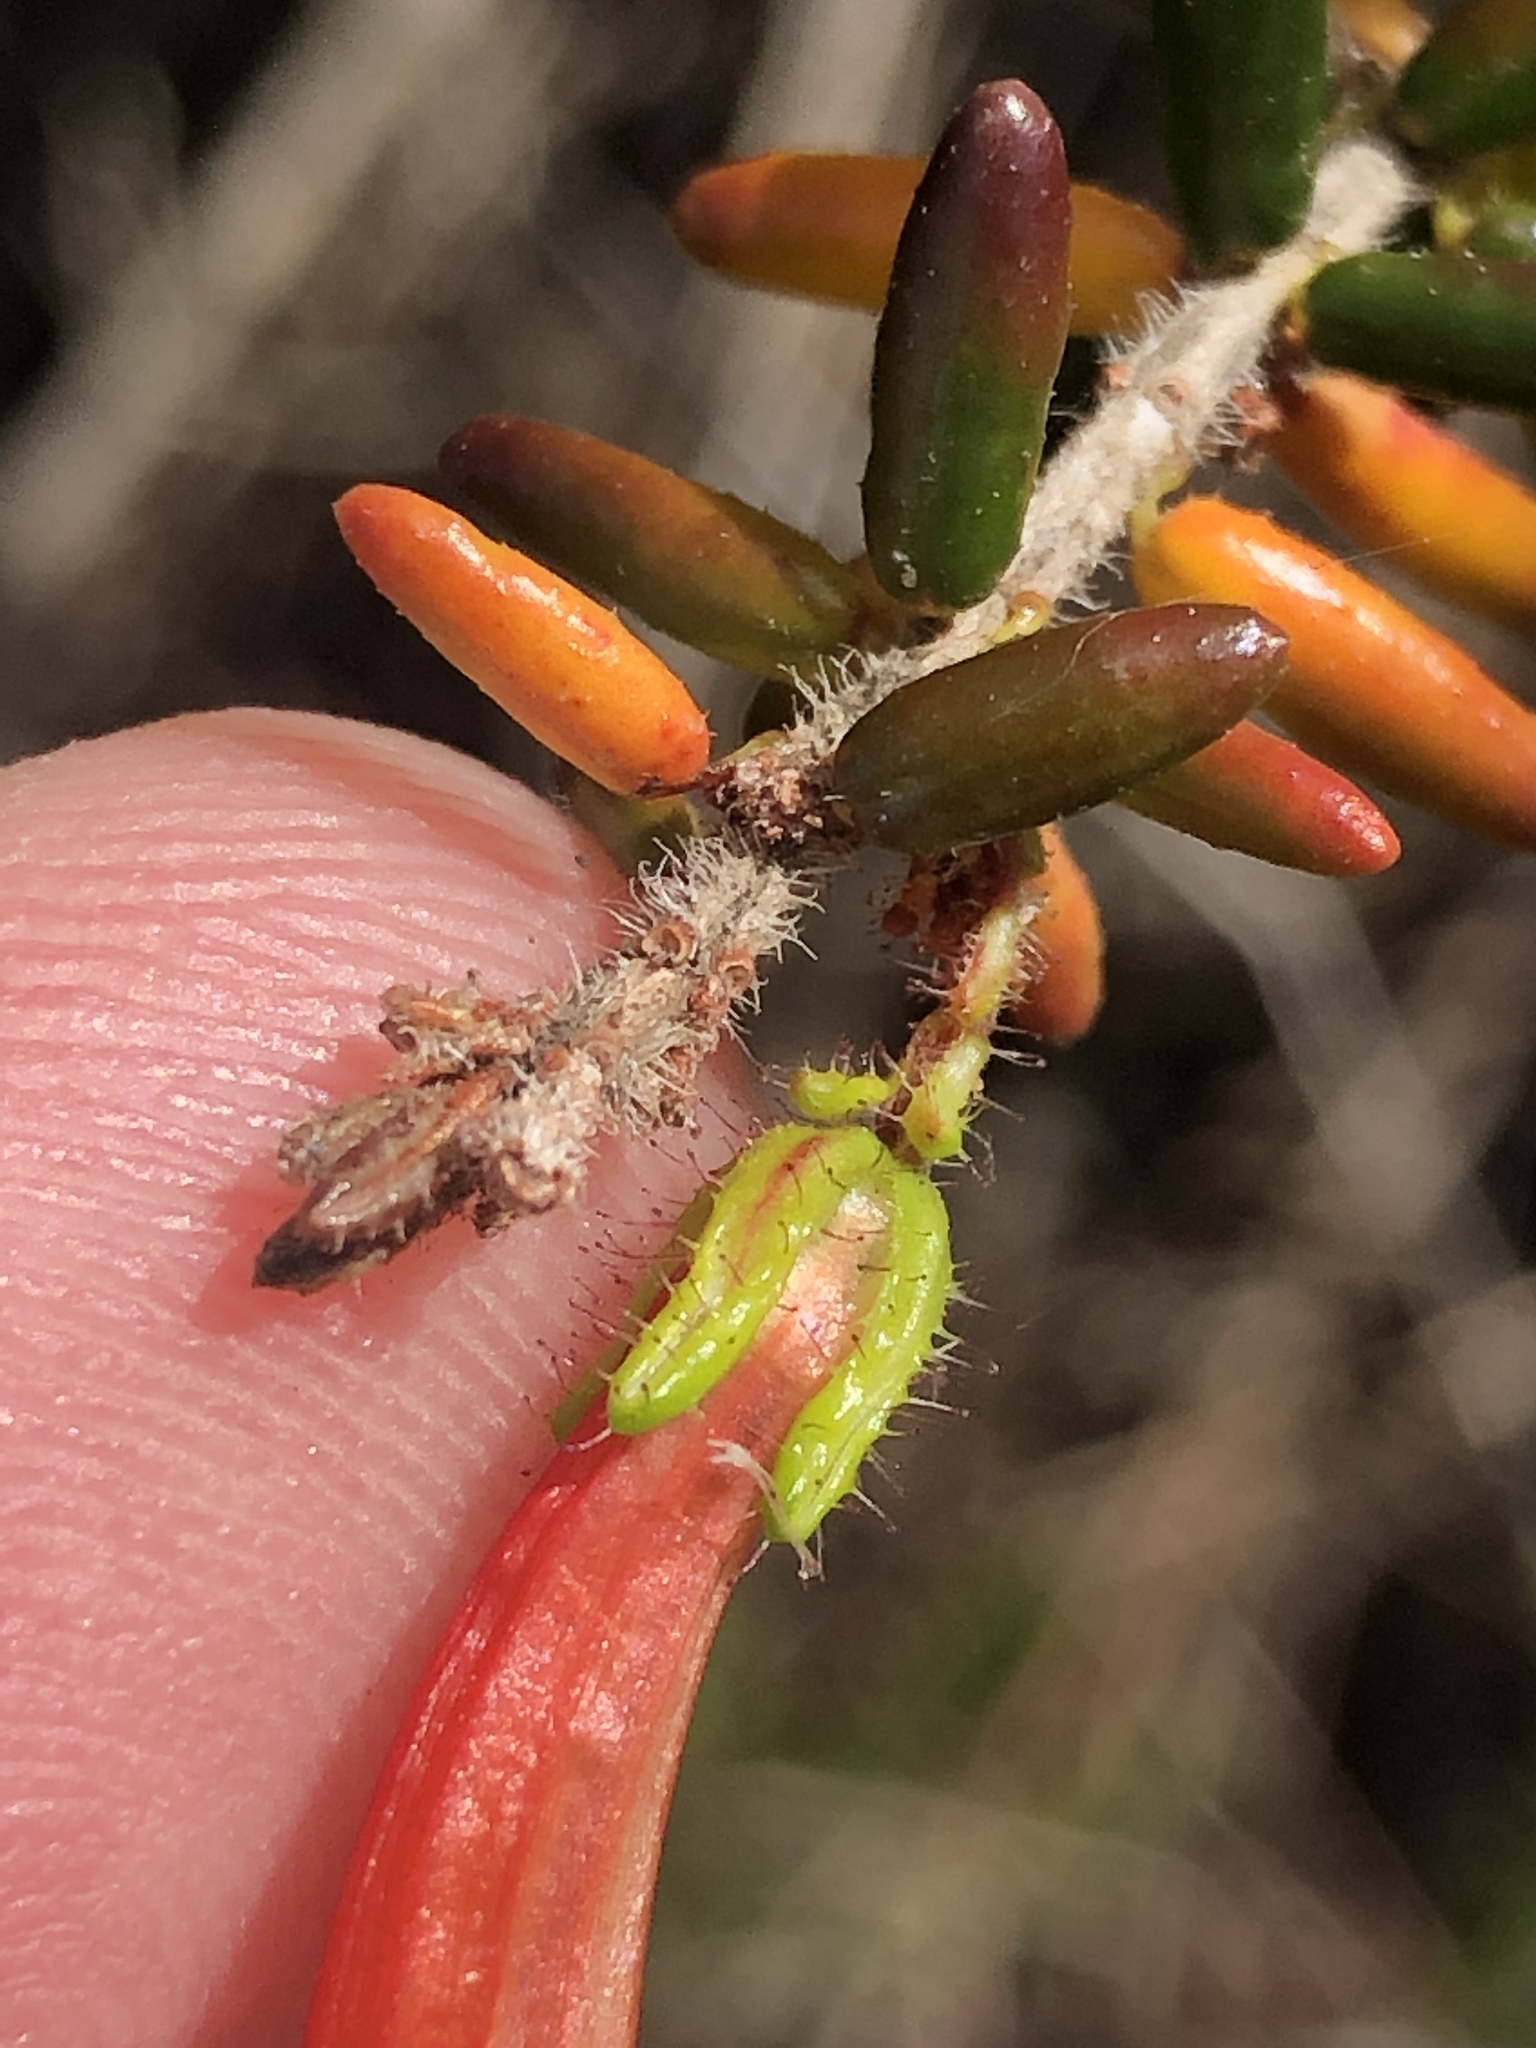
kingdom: Plantae
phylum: Tracheophyta
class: Magnoliopsida
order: Ericales
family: Ericaceae
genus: Erica
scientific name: Erica glandulosa
